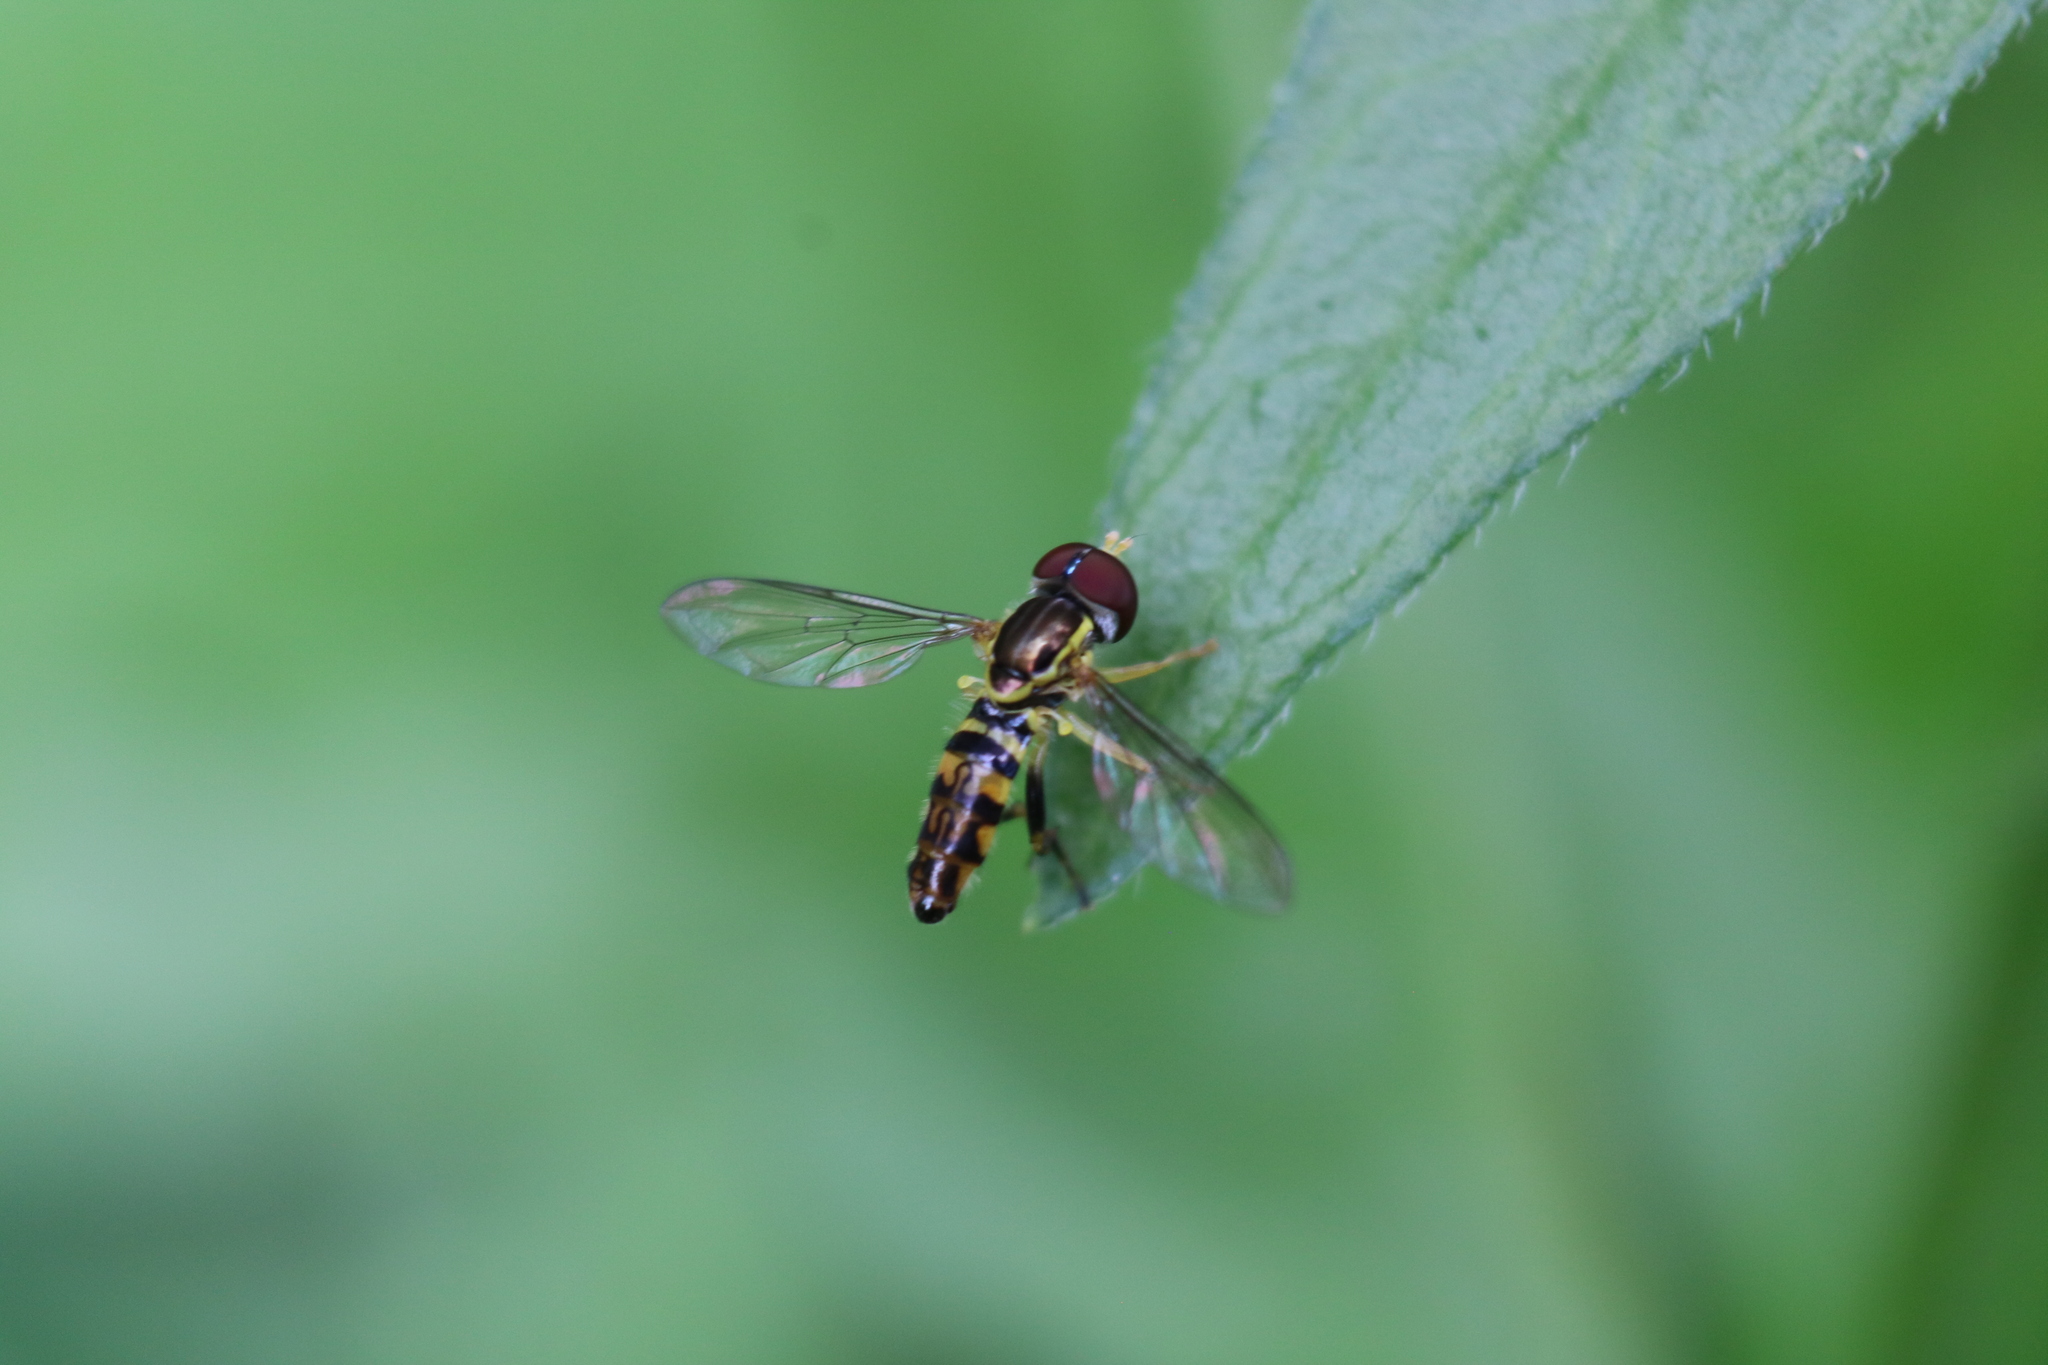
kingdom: Animalia
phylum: Arthropoda
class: Insecta
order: Diptera
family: Syrphidae
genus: Toxomerus
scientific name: Toxomerus geminatus
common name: Eastern calligrapher
